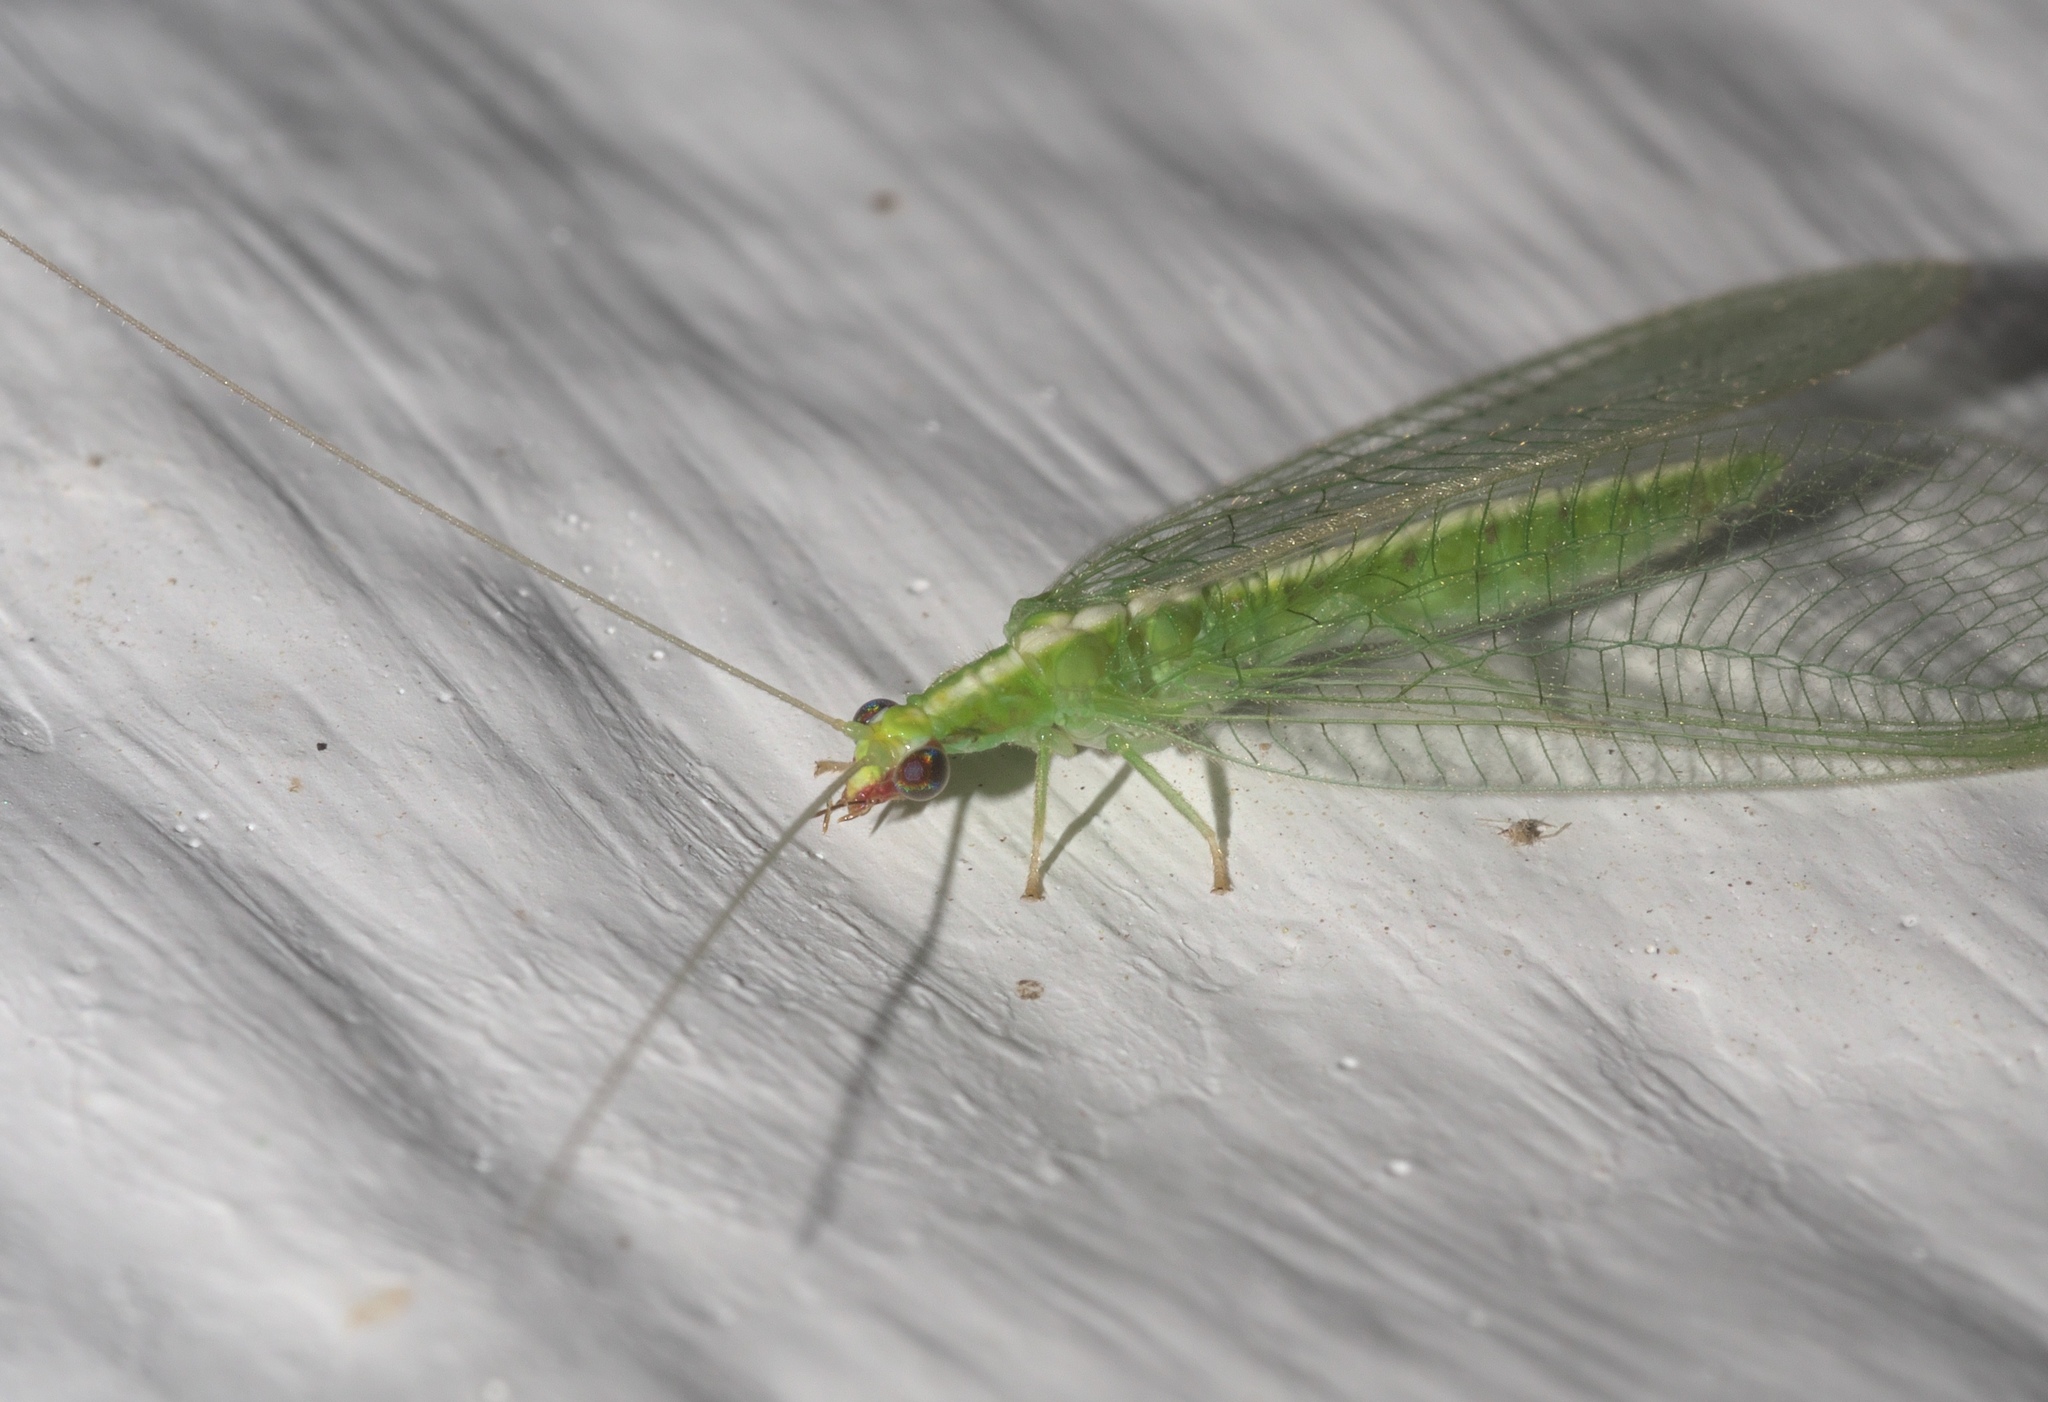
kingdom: Animalia
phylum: Arthropoda
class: Insecta
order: Neuroptera
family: Chrysopidae
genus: Chrysoperla
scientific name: Chrysoperla rufilabris
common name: Red-lipped green lacewing
